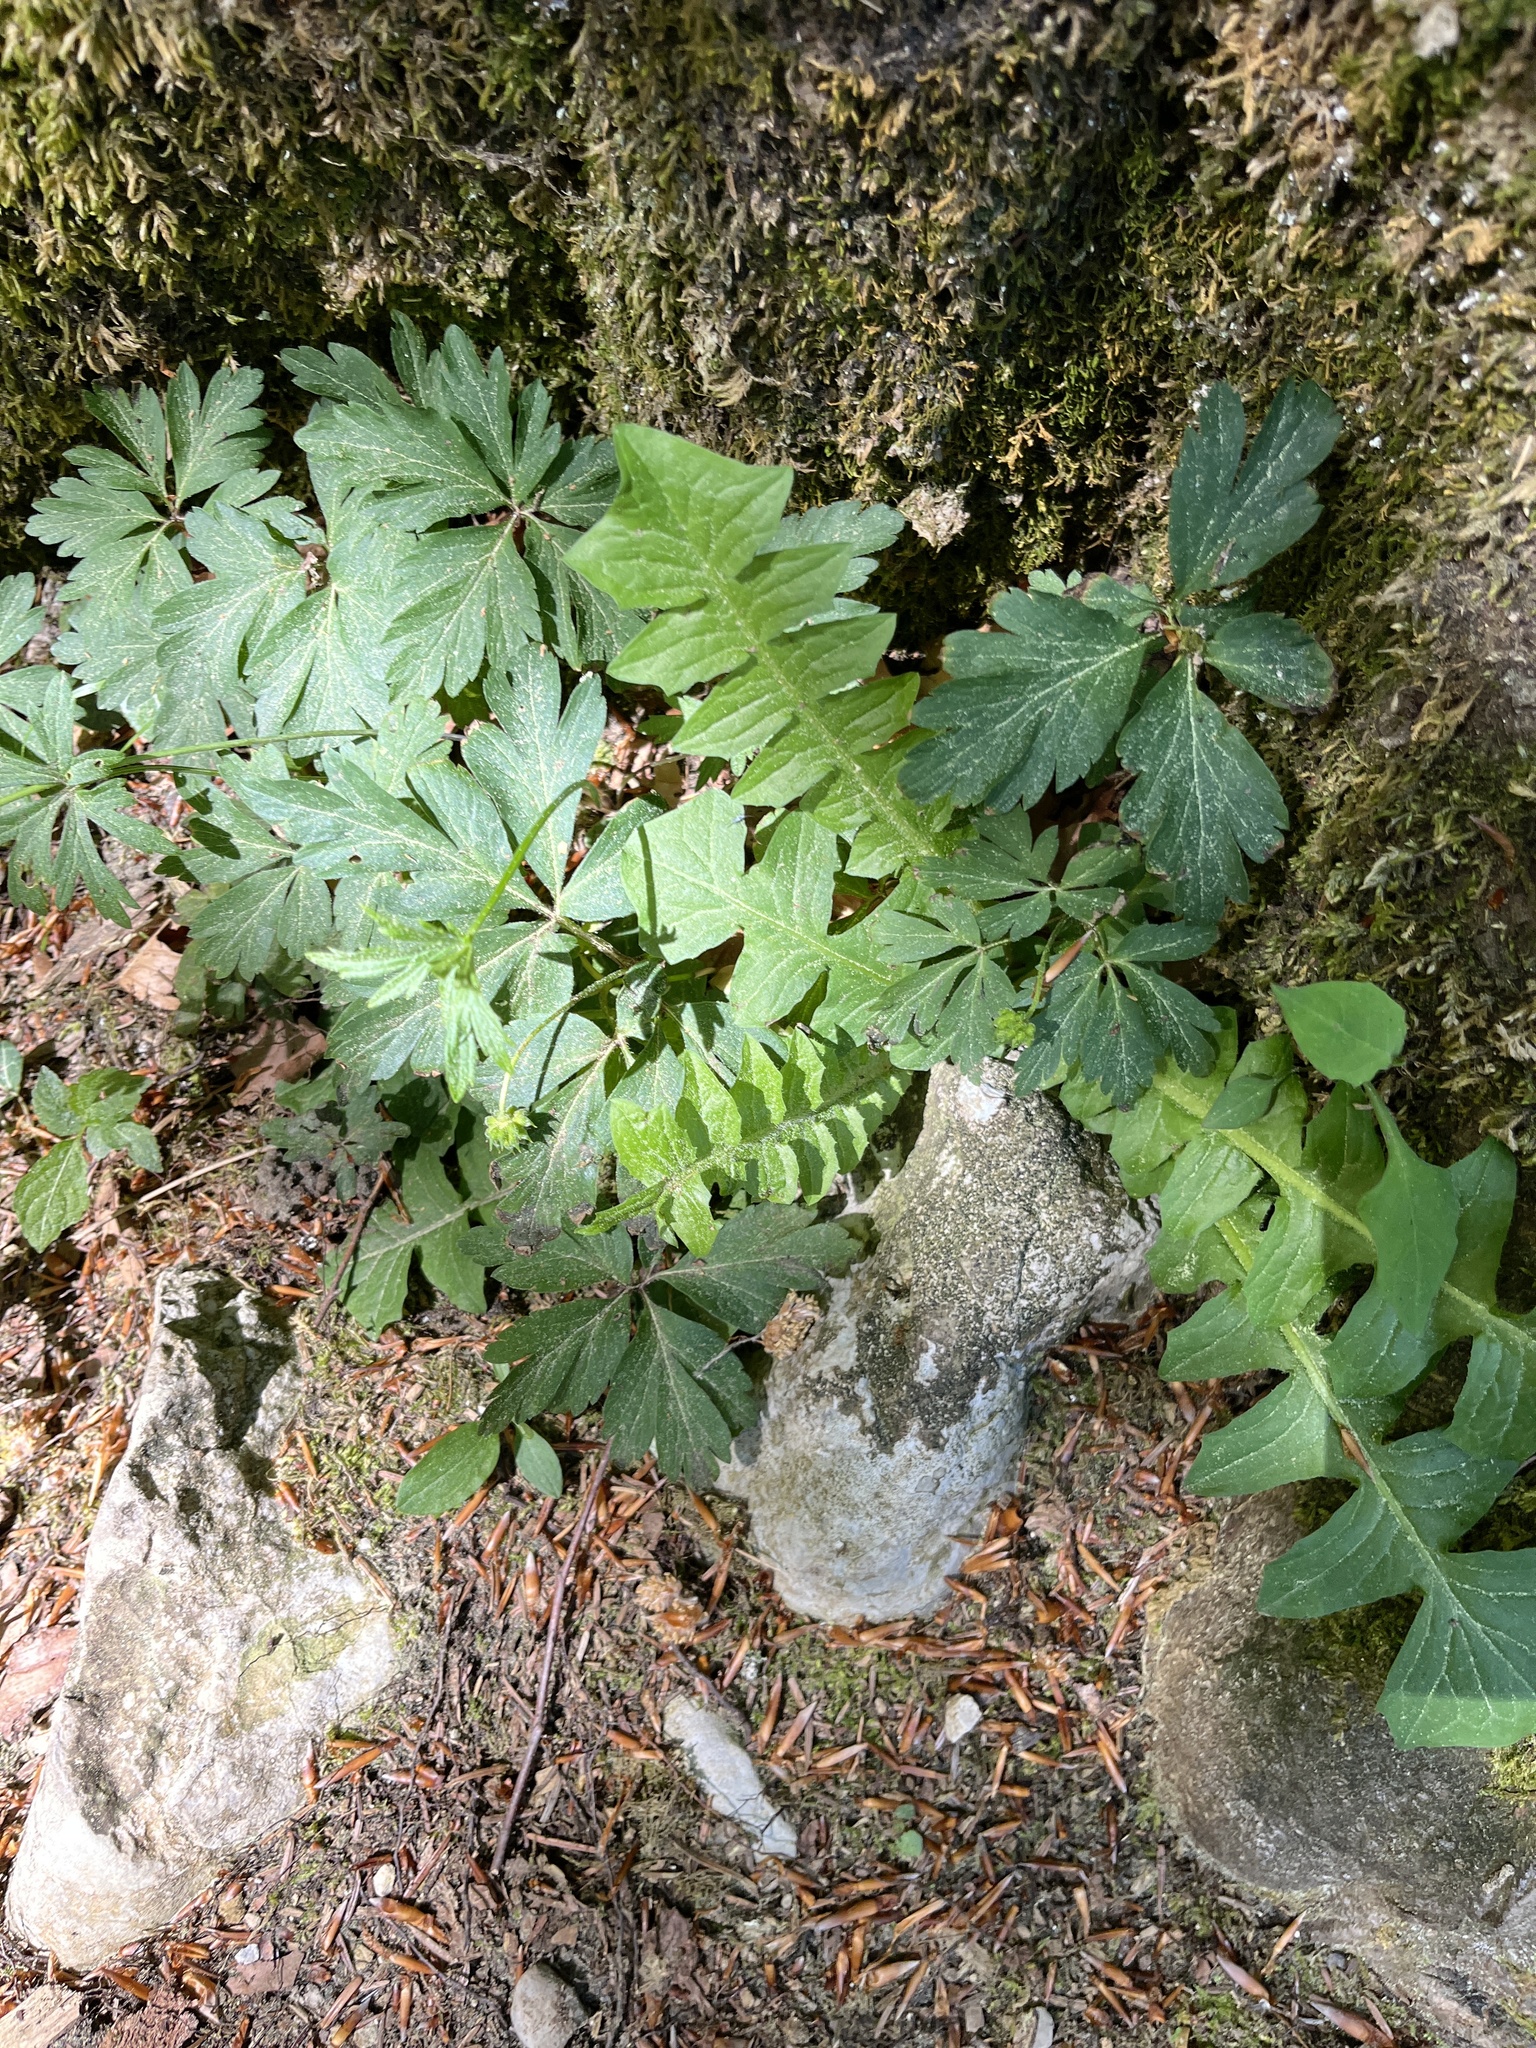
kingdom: Plantae
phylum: Tracheophyta
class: Magnoliopsida
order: Asterales
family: Asteraceae
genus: Aposeris
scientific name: Aposeris foetida
